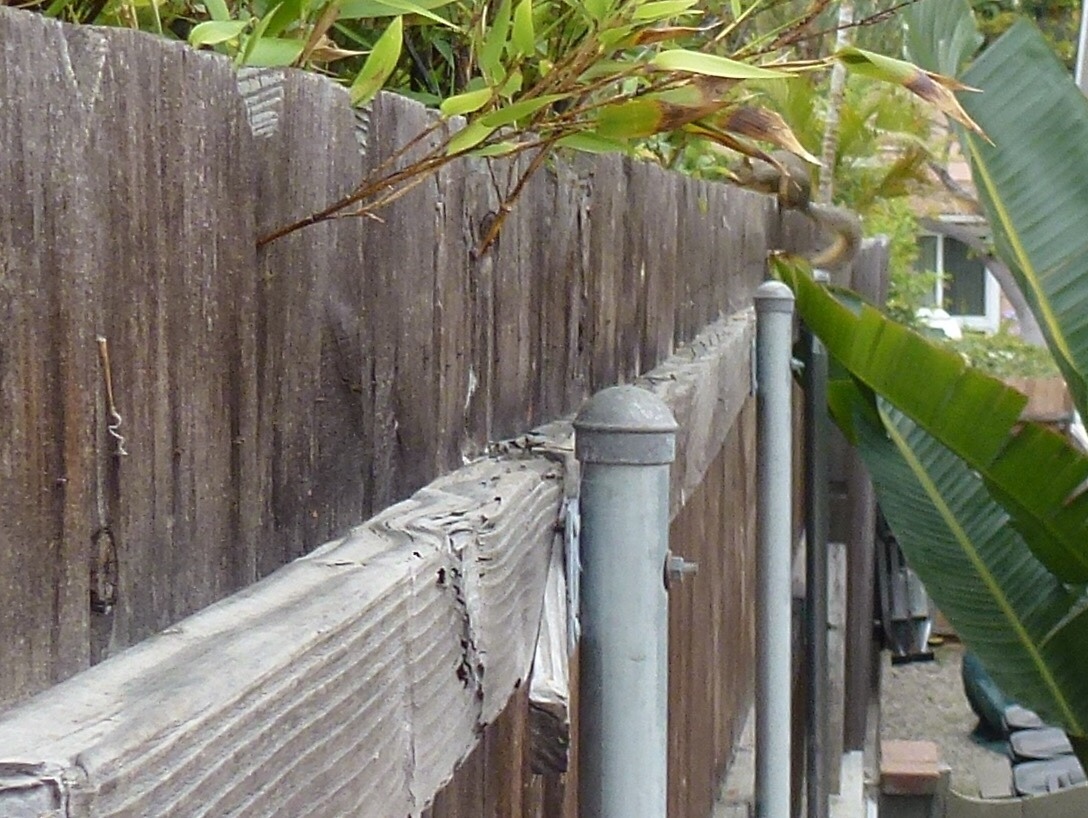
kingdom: Animalia
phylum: Chordata
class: Mammalia
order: Rodentia
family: Sciuridae
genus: Sciurus
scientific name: Sciurus niger
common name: Fox squirrel
